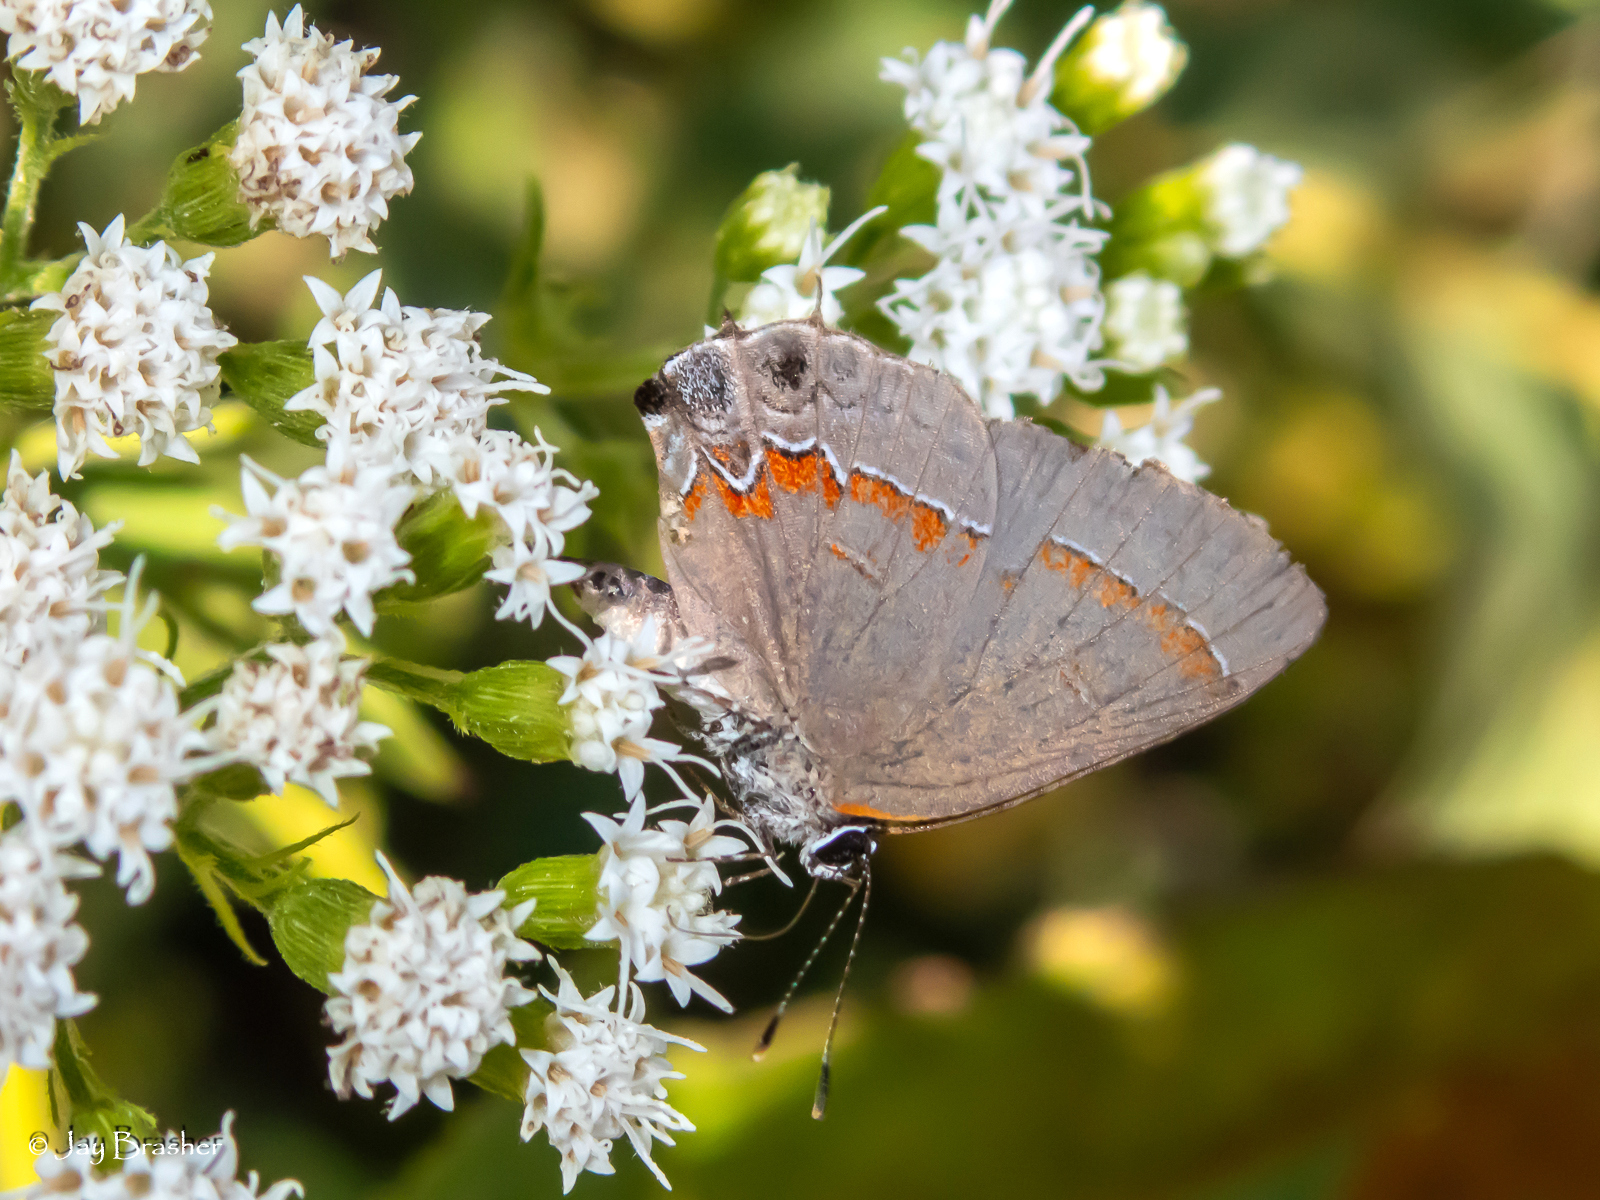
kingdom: Animalia
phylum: Arthropoda
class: Insecta
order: Lepidoptera
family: Lycaenidae
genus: Calycopis
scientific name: Calycopis cecrops
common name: Red-banded hairstreak
